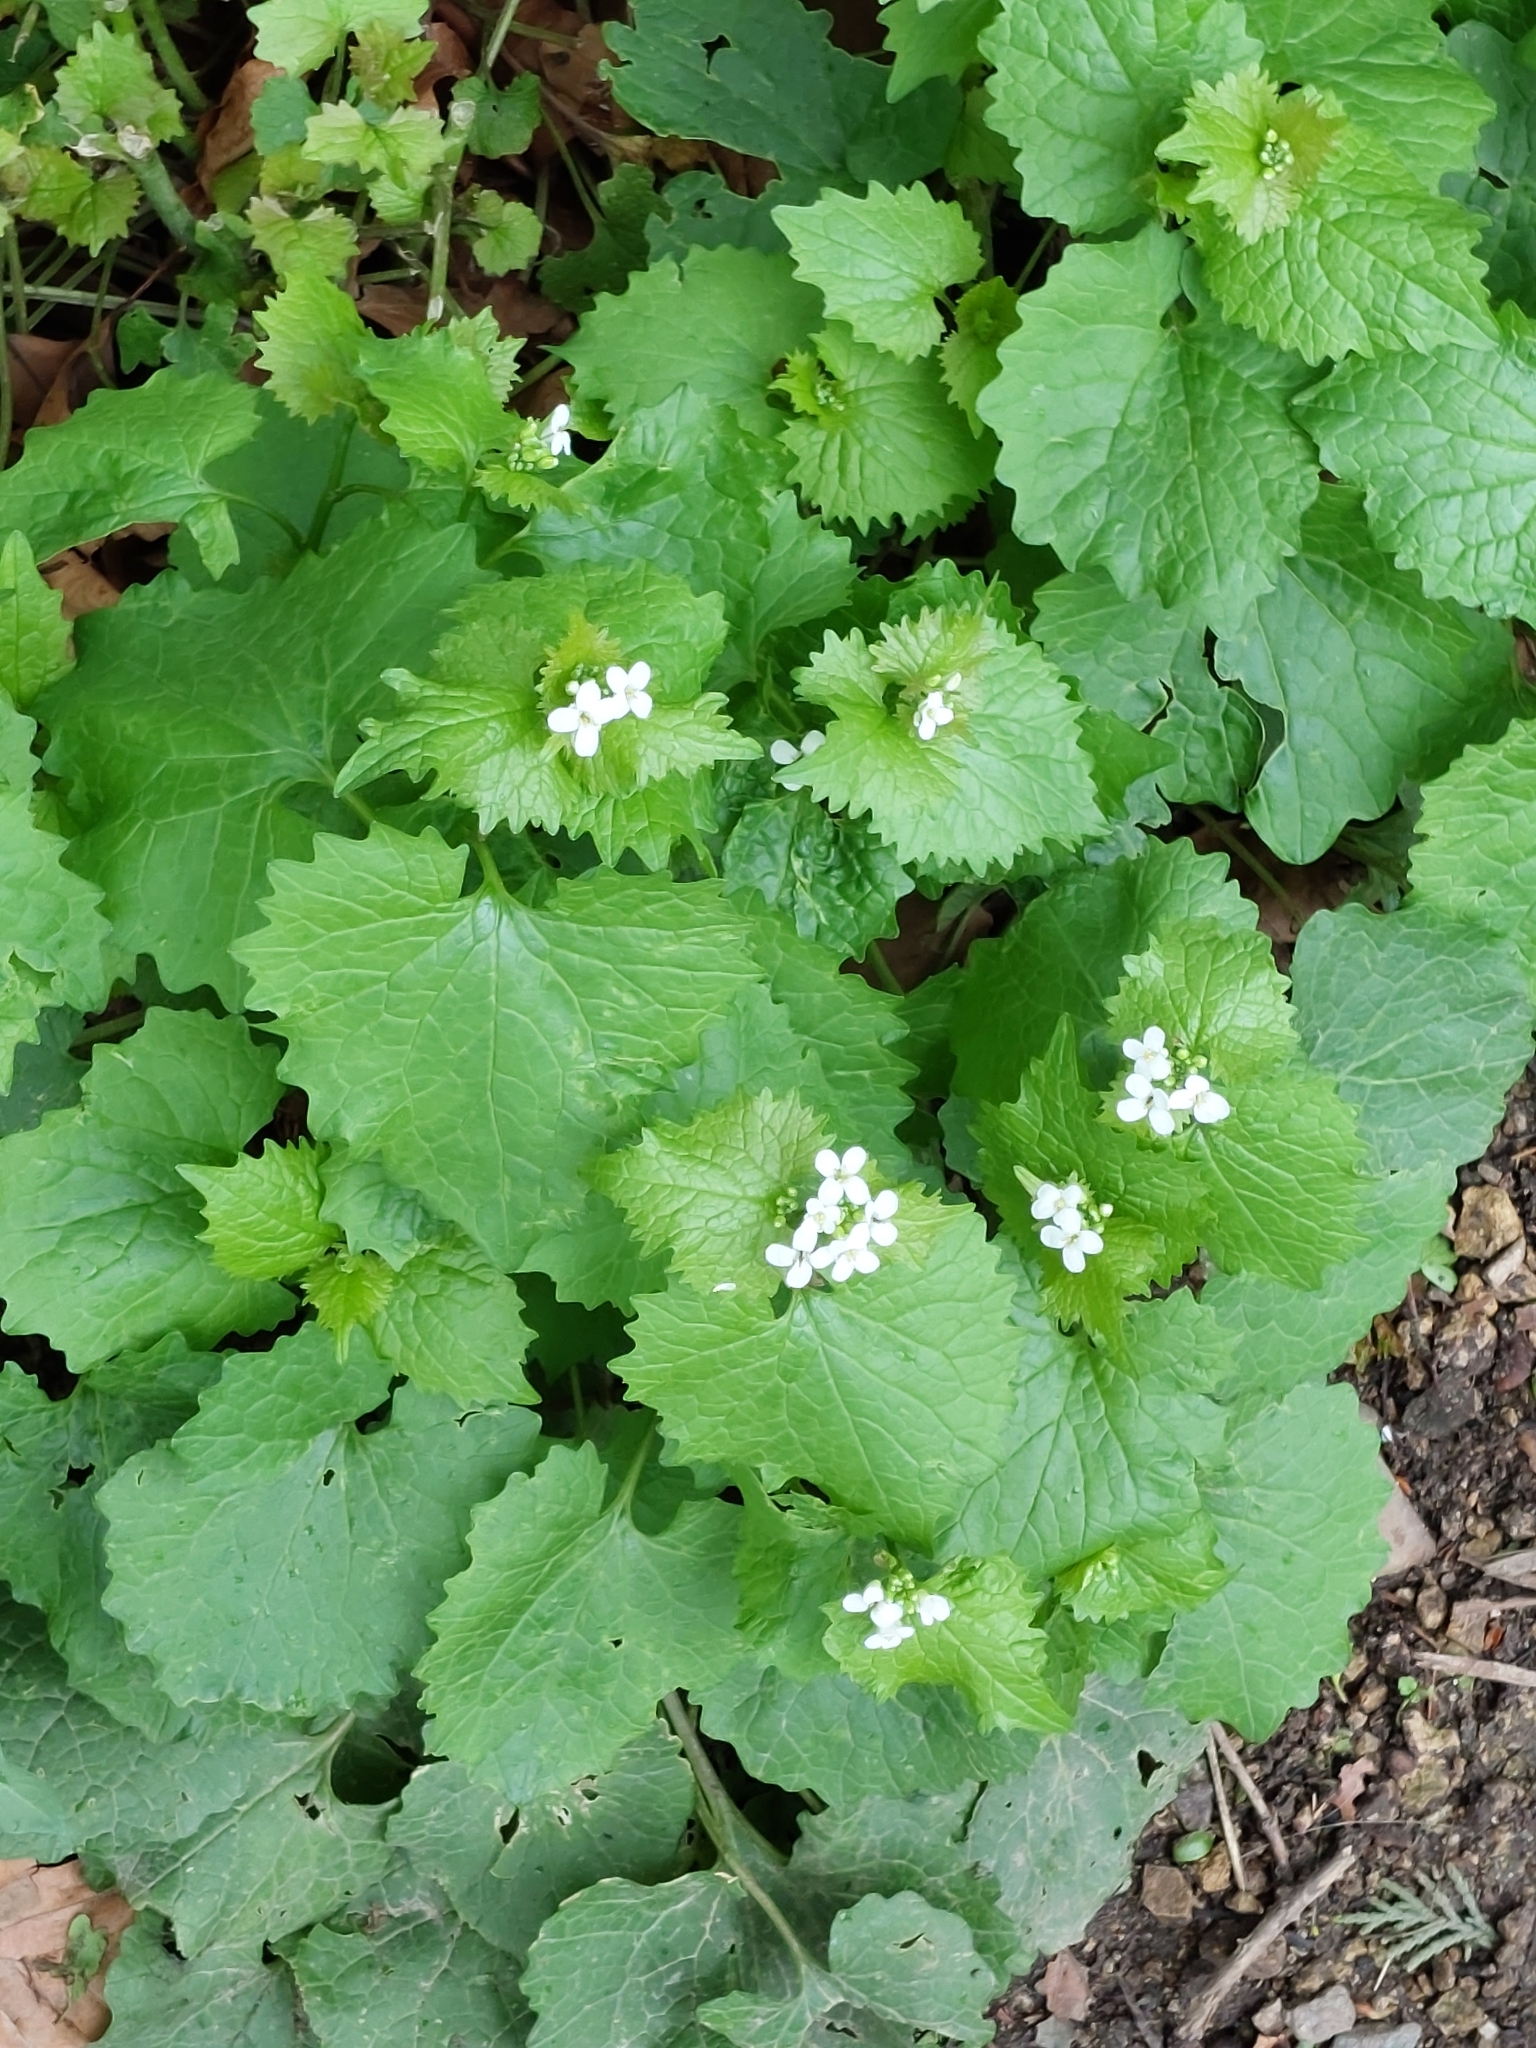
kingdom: Plantae
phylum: Tracheophyta
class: Magnoliopsida
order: Brassicales
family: Brassicaceae
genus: Alliaria
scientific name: Alliaria petiolata
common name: Garlic mustard
